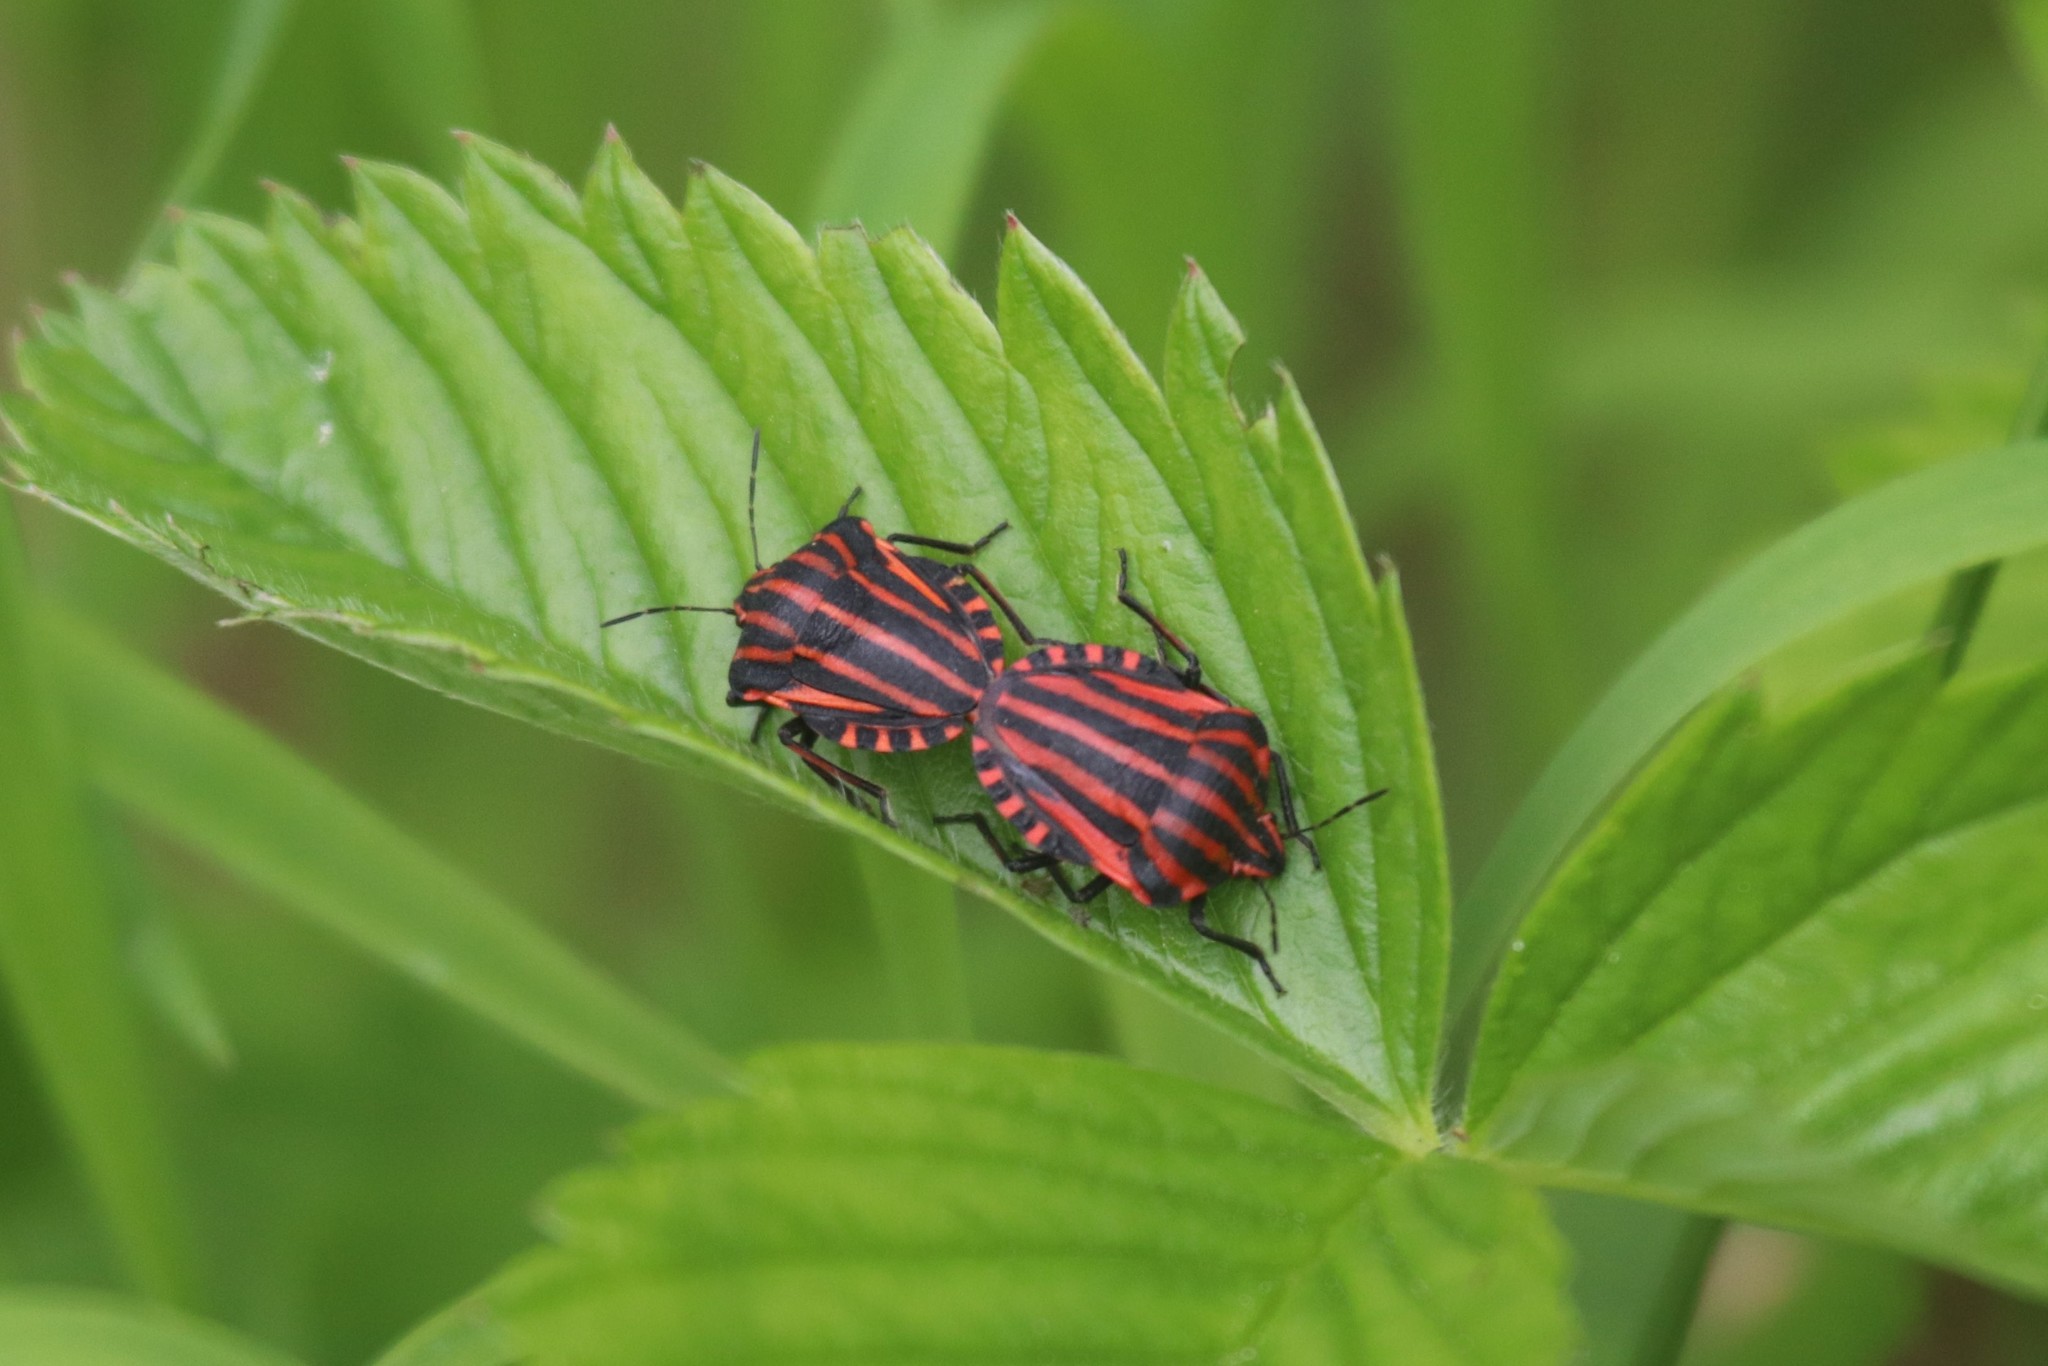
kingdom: Animalia
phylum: Arthropoda
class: Insecta
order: Hemiptera
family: Pentatomidae
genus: Graphosoma
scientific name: Graphosoma italicum
